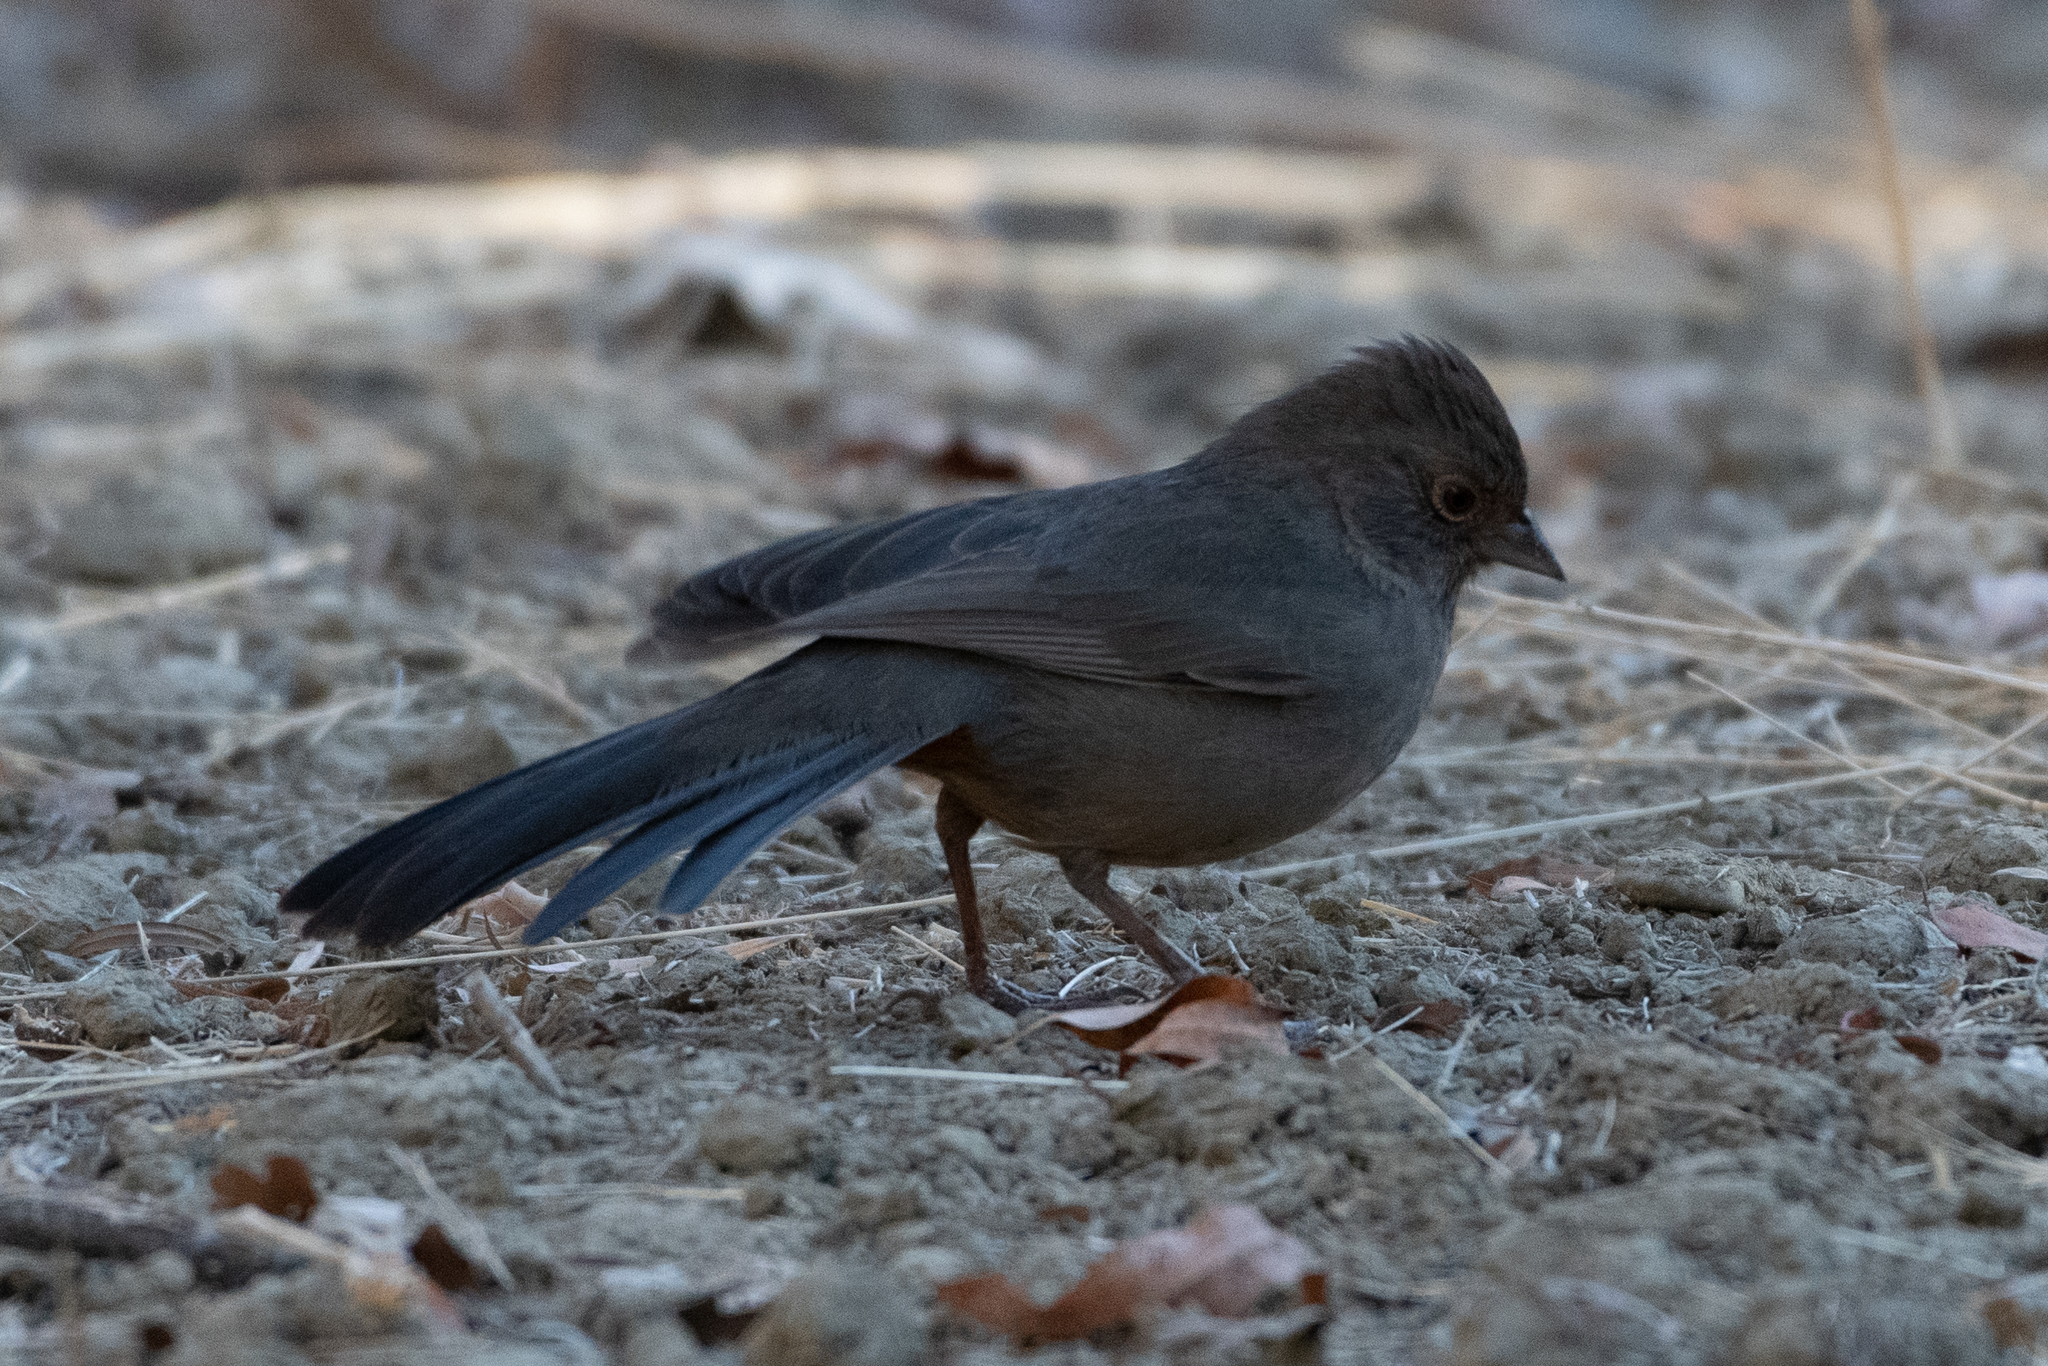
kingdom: Animalia
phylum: Chordata
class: Aves
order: Passeriformes
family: Passerellidae
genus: Melozone
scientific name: Melozone crissalis
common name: California towhee
